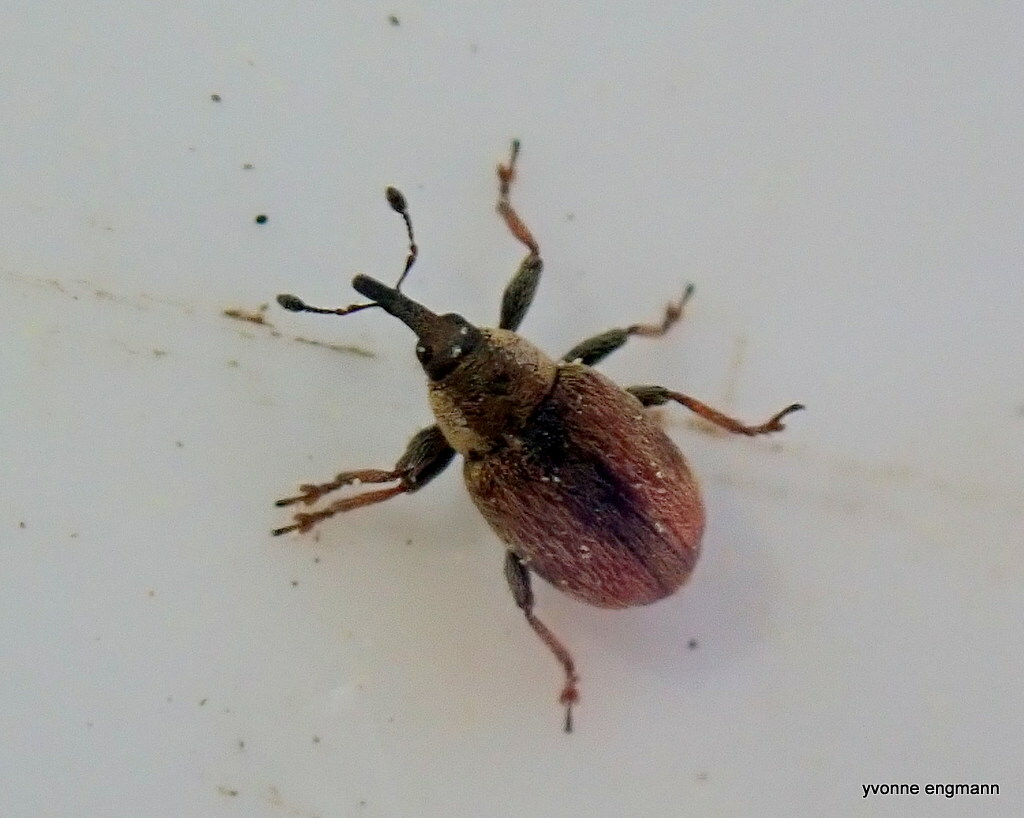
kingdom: Animalia
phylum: Arthropoda
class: Insecta
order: Coleoptera
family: Curculionidae
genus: Gymnetron
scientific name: Gymnetron villosulum
